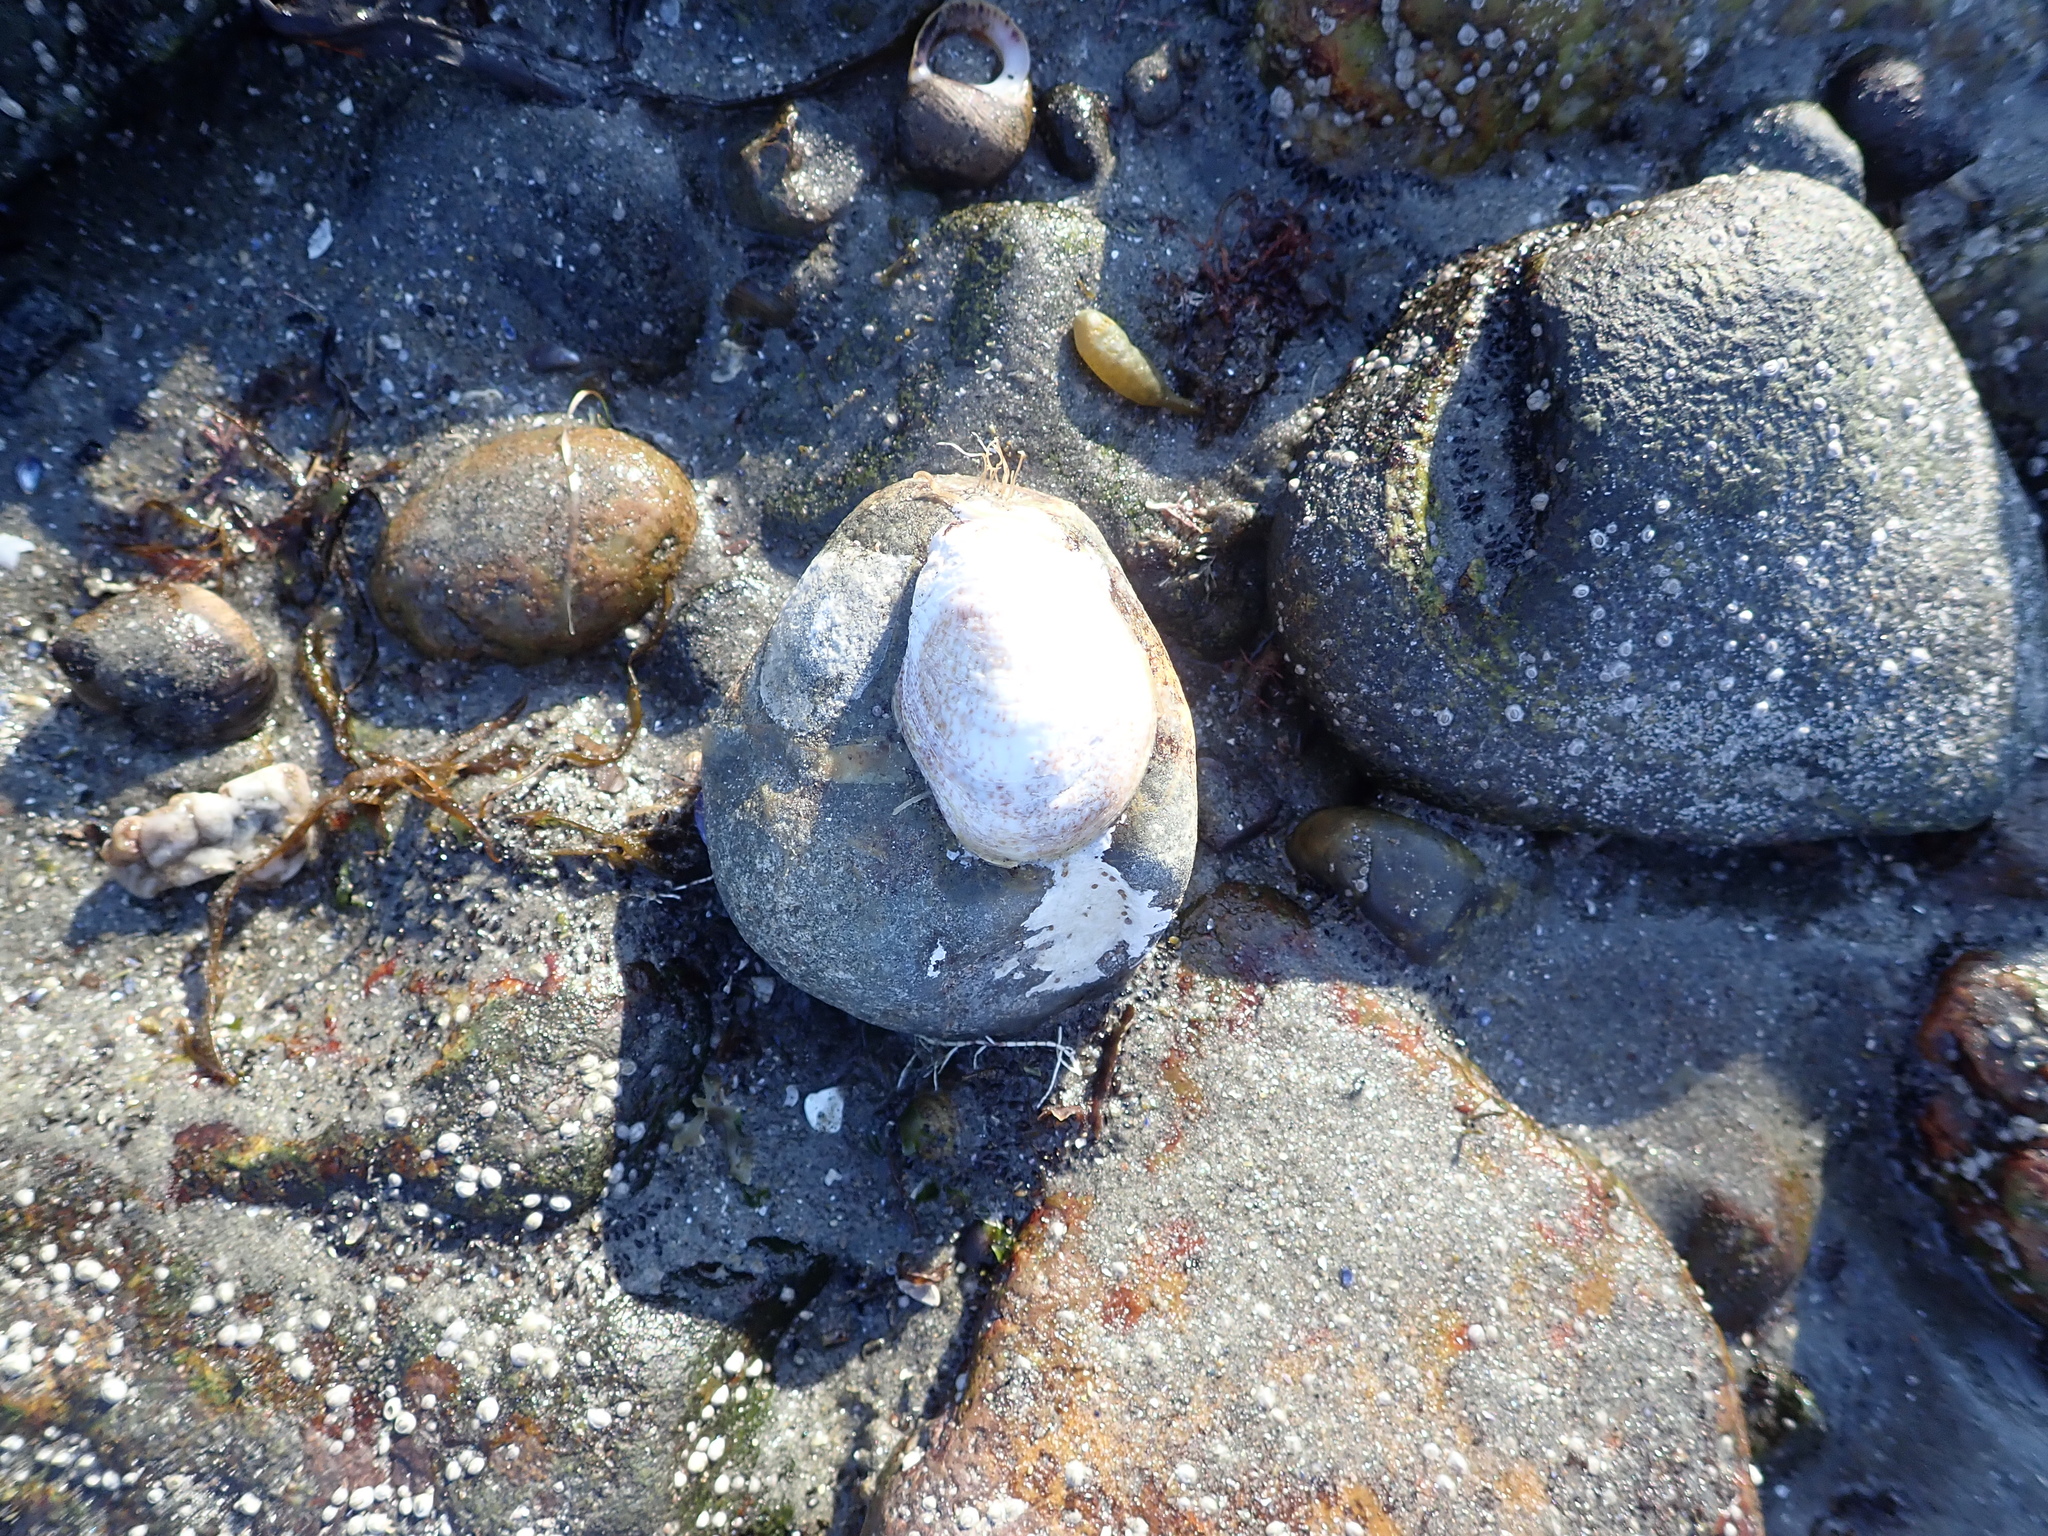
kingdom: Animalia
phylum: Mollusca
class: Gastropoda
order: Littorinimorpha
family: Calyptraeidae
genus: Crepidula
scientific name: Crepidula fornicata
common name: Slipper limpet
